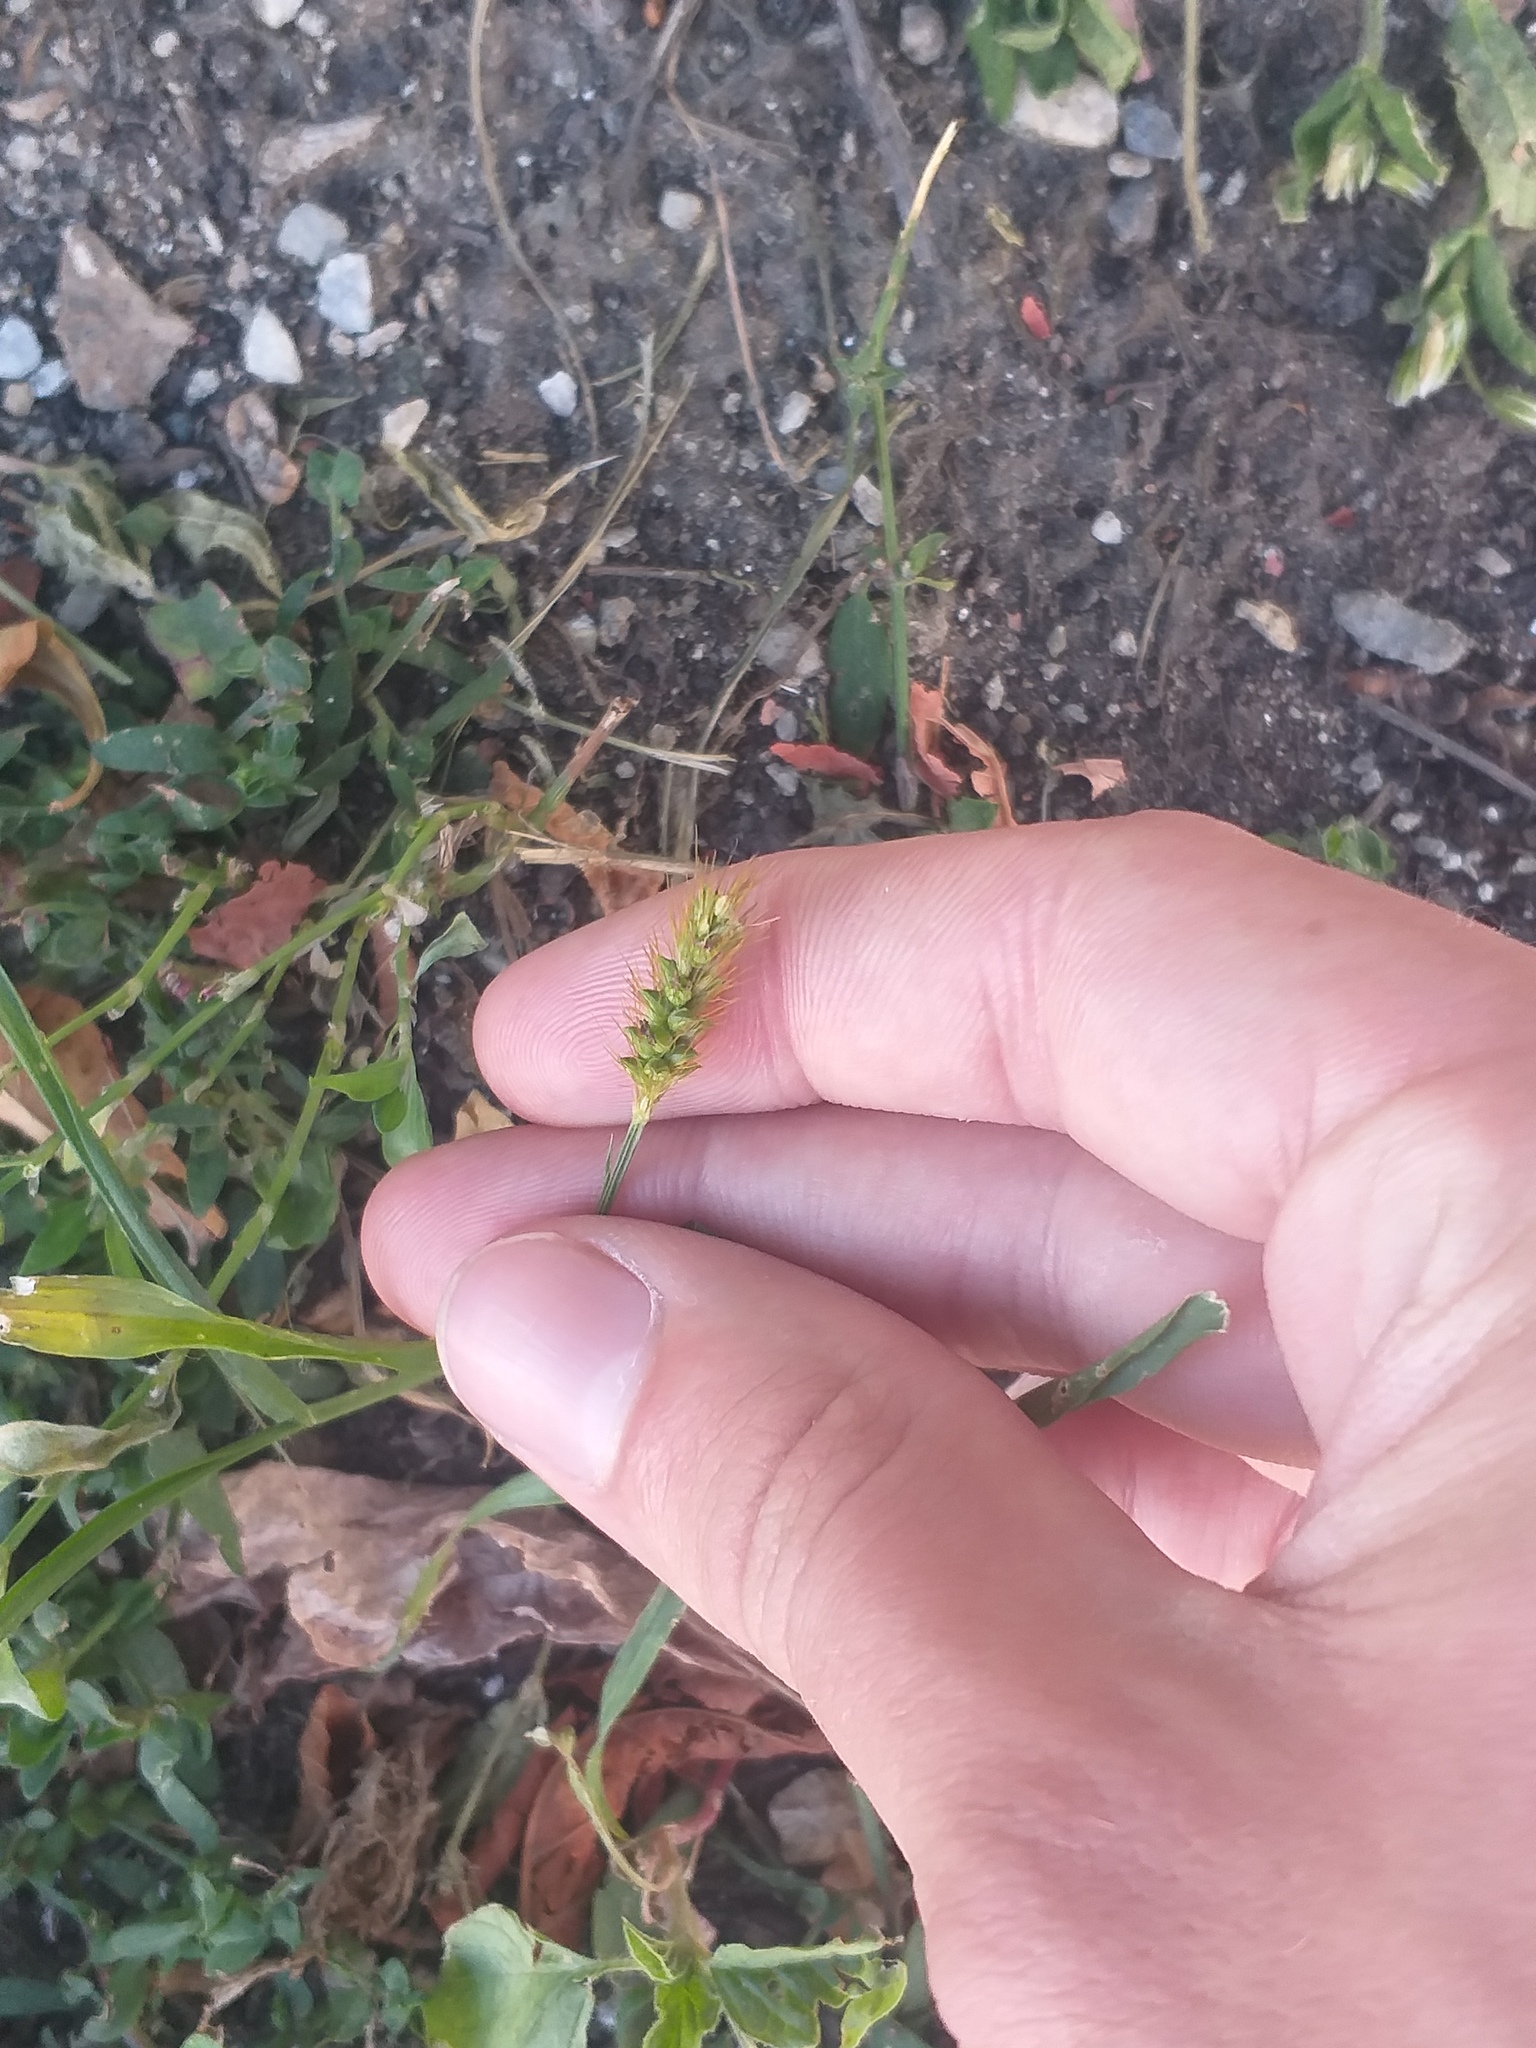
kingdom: Plantae
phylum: Tracheophyta
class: Liliopsida
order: Poales
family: Poaceae
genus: Setaria
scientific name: Setaria pumila
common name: Yellow bristle-grass
